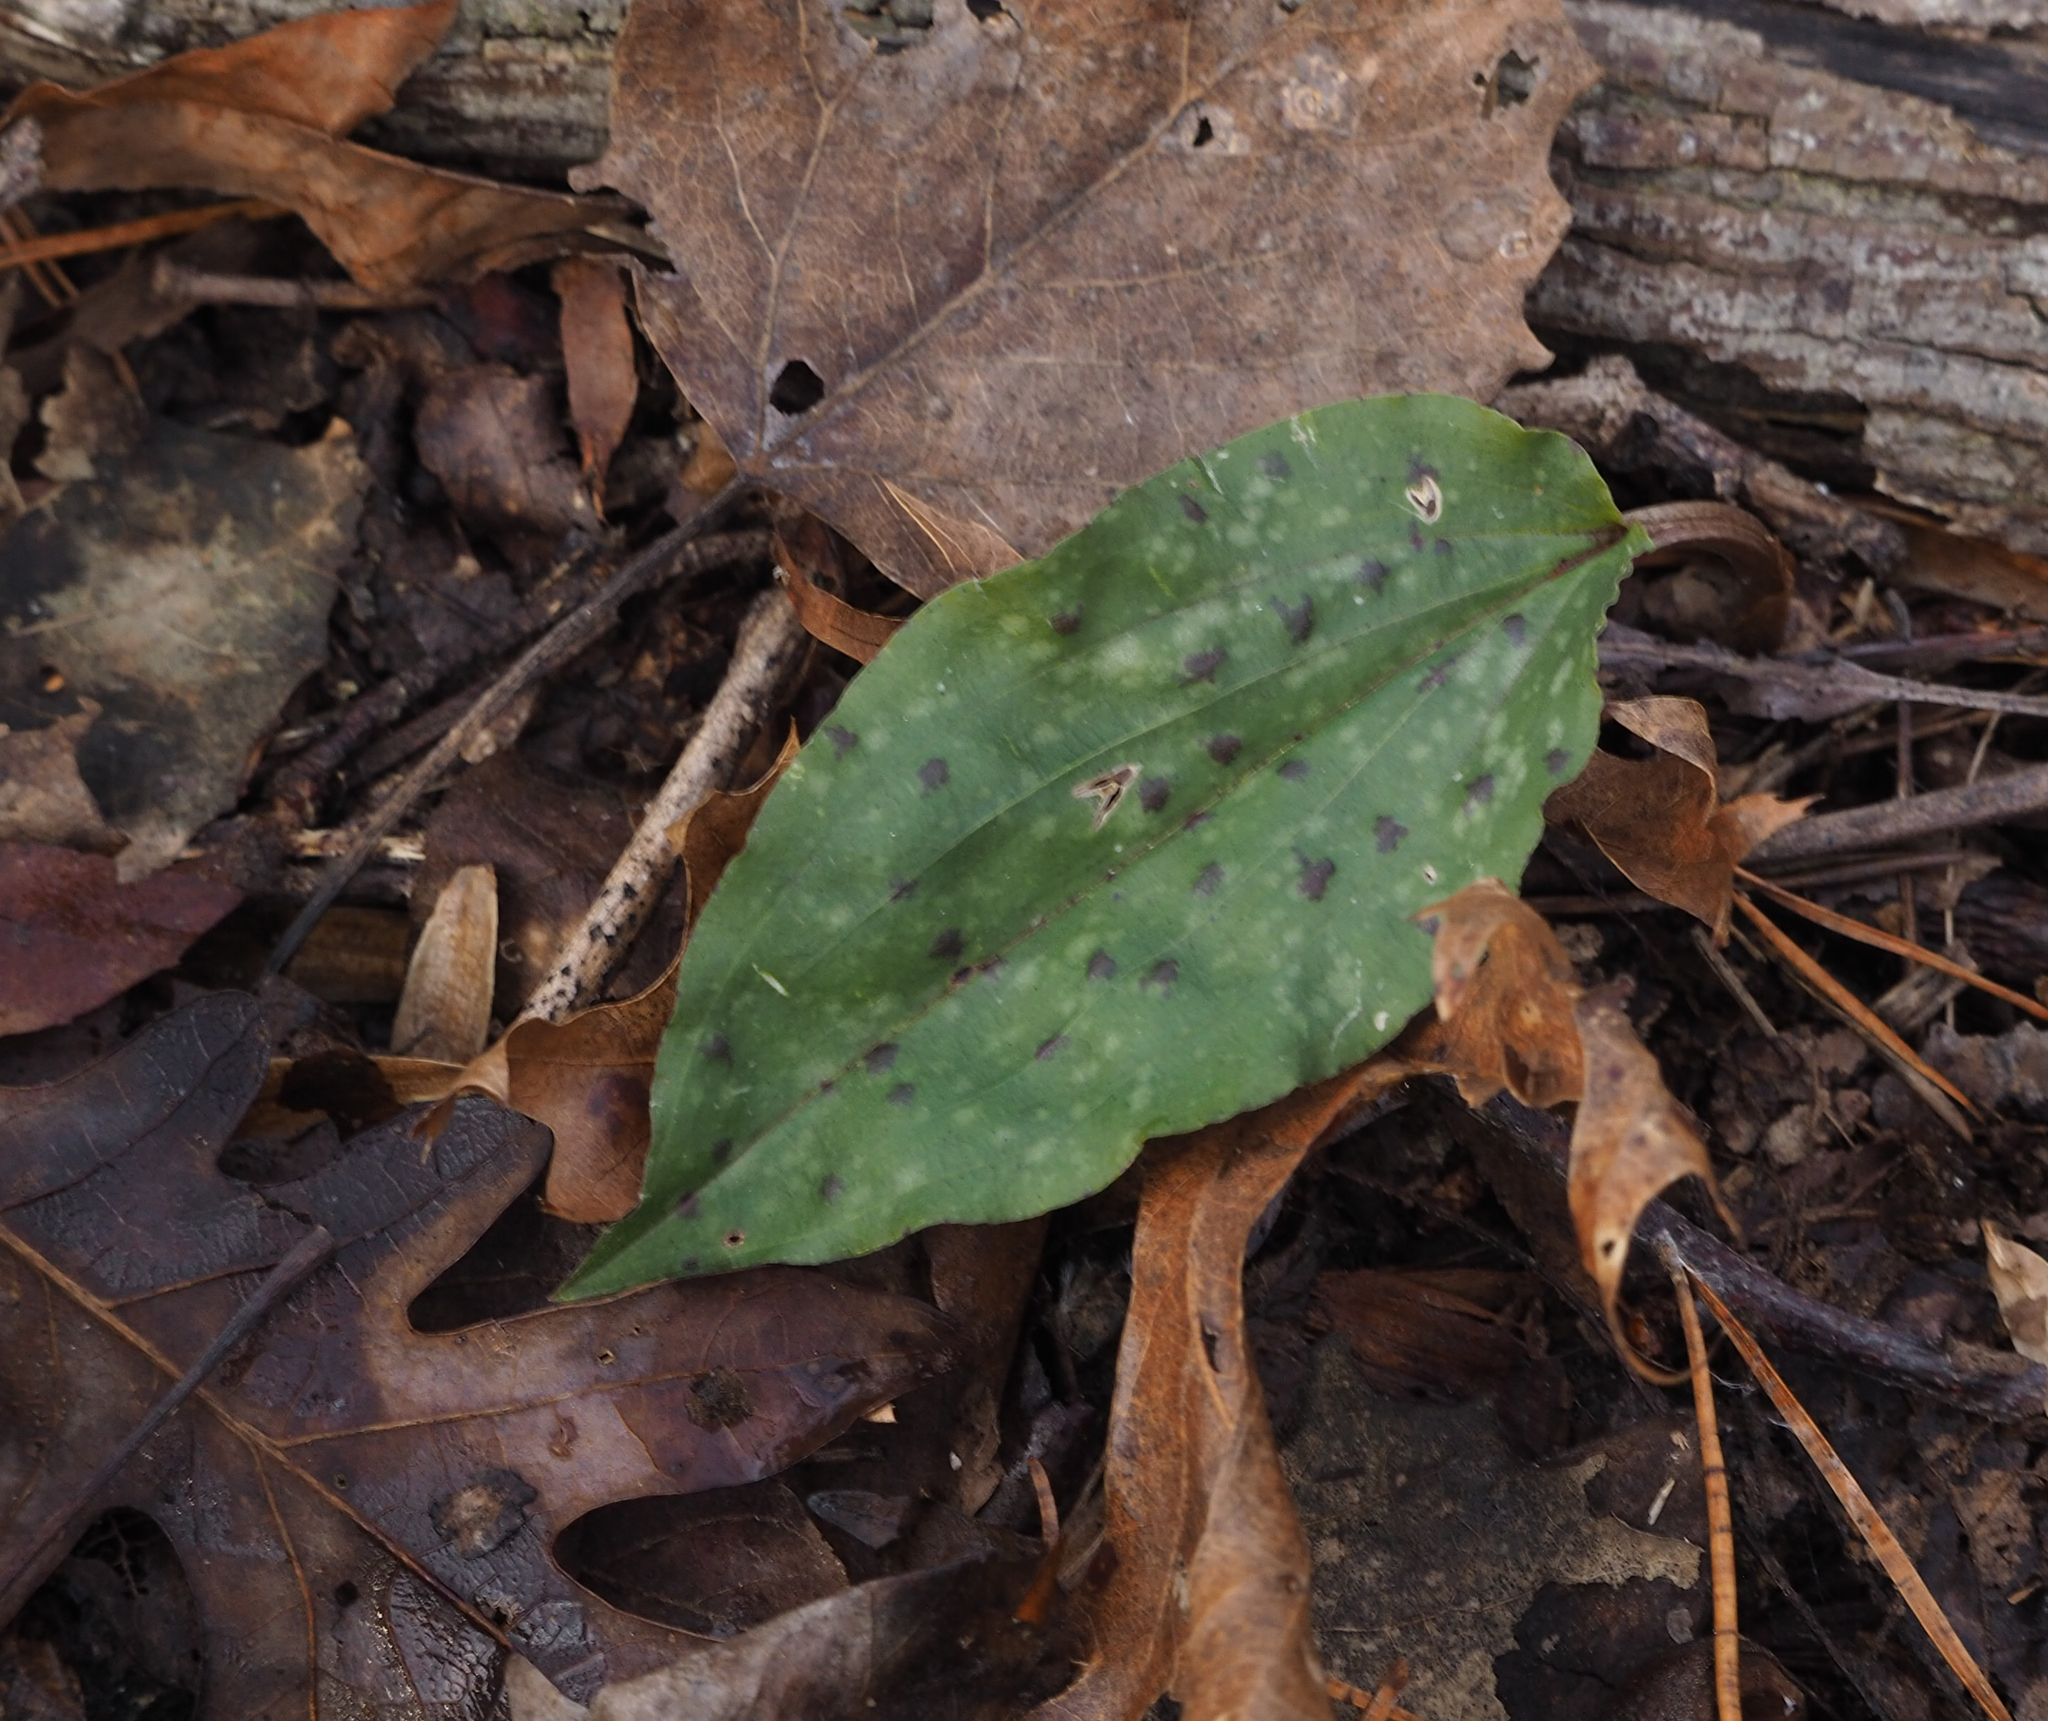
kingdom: Plantae
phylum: Tracheophyta
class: Liliopsida
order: Asparagales
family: Orchidaceae
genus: Tipularia
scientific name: Tipularia discolor
